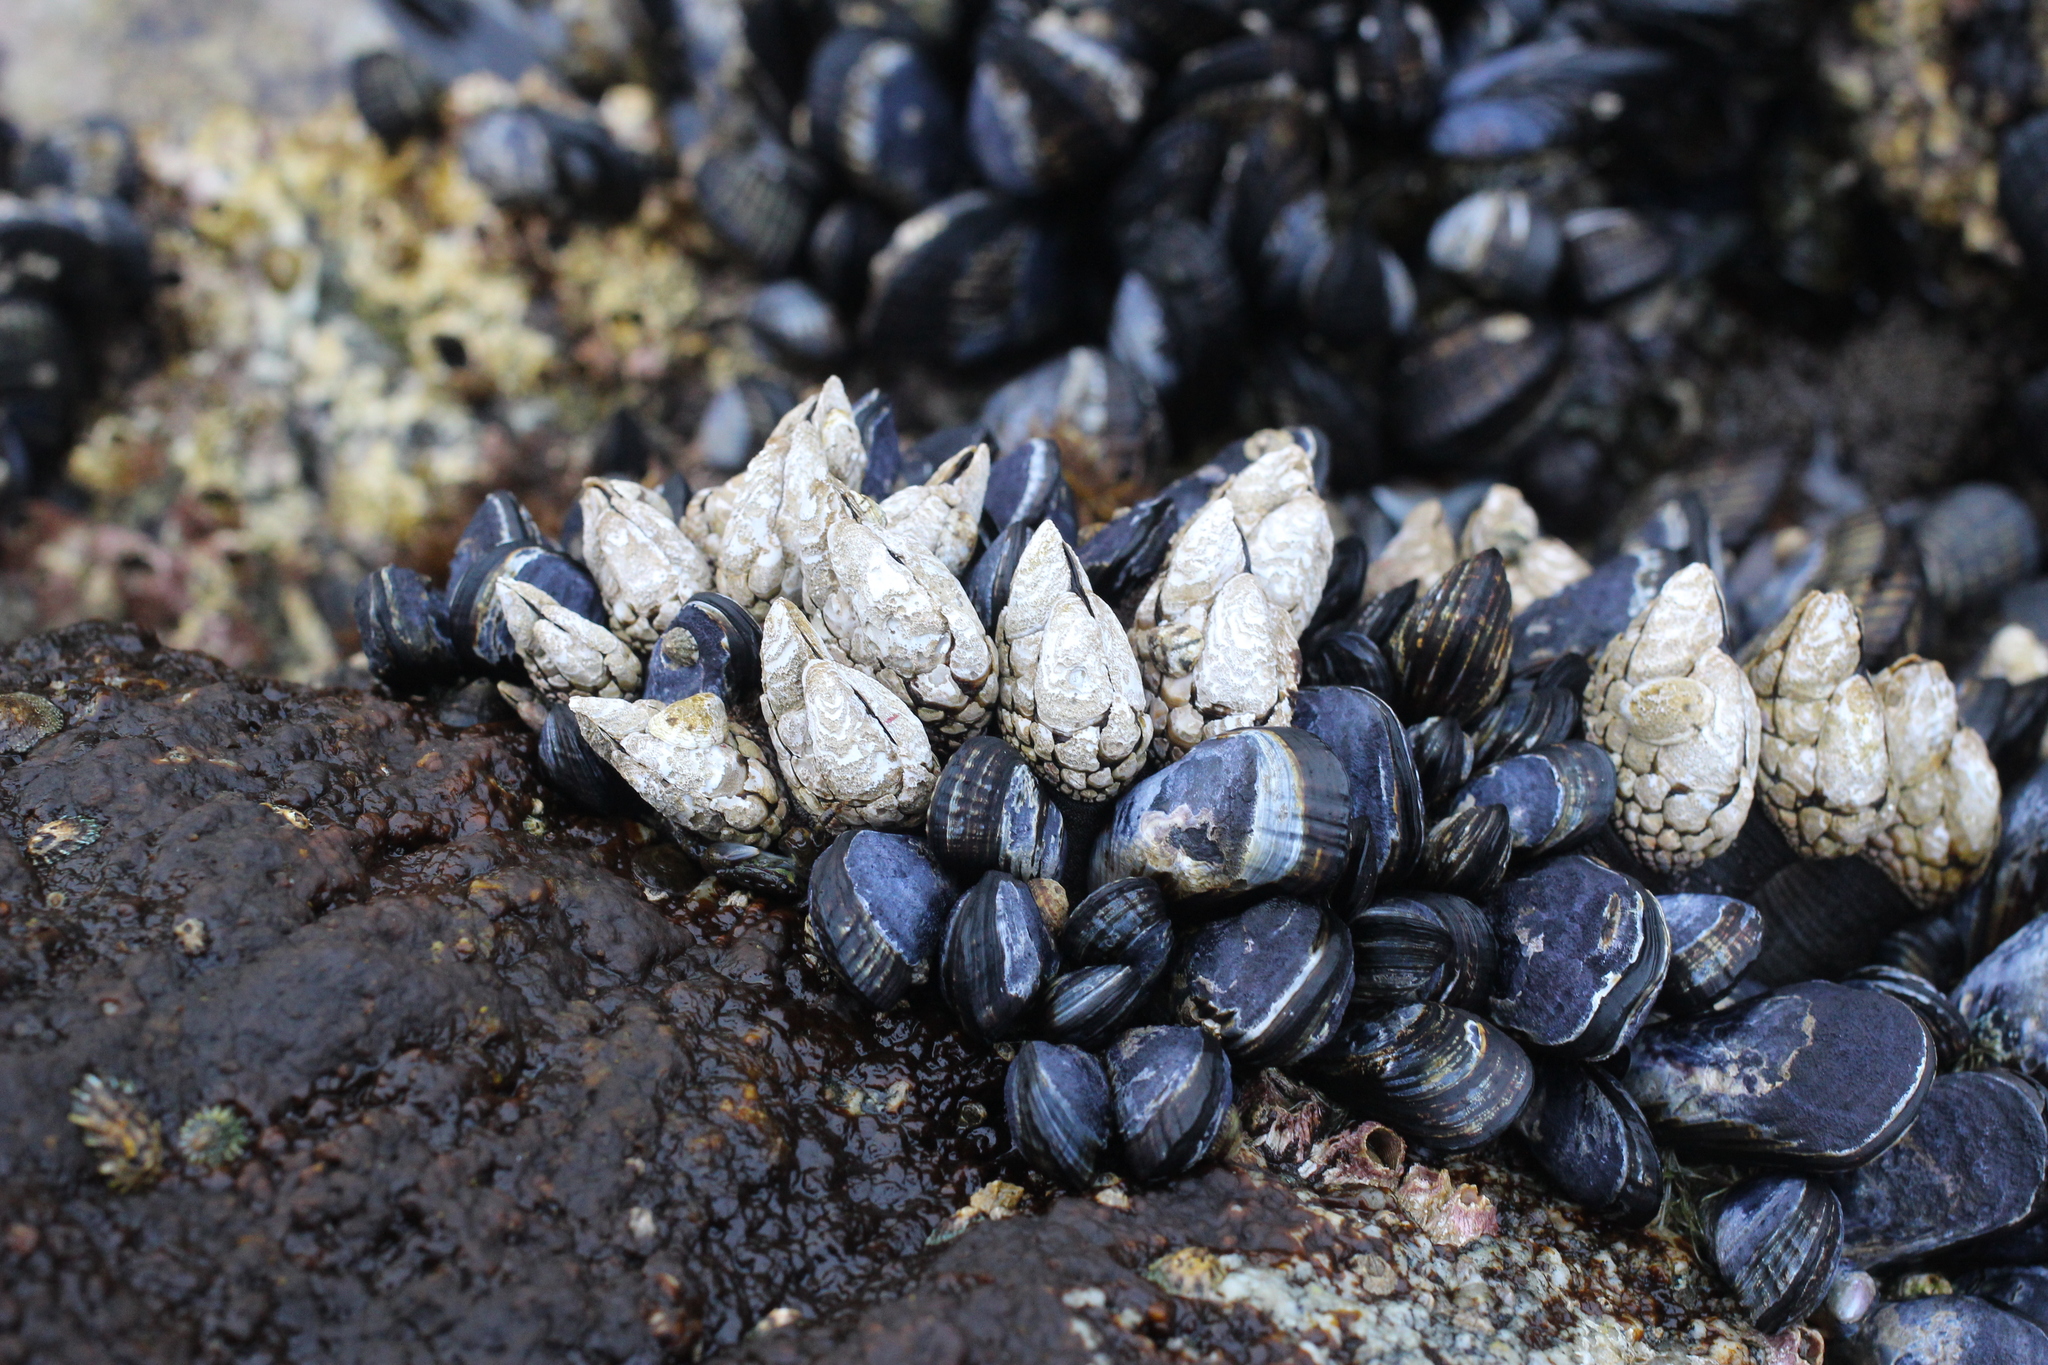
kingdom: Animalia
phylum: Arthropoda
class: Maxillopoda
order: Pedunculata
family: Pollicipedidae
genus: Pollicipes
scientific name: Pollicipes polymerus
